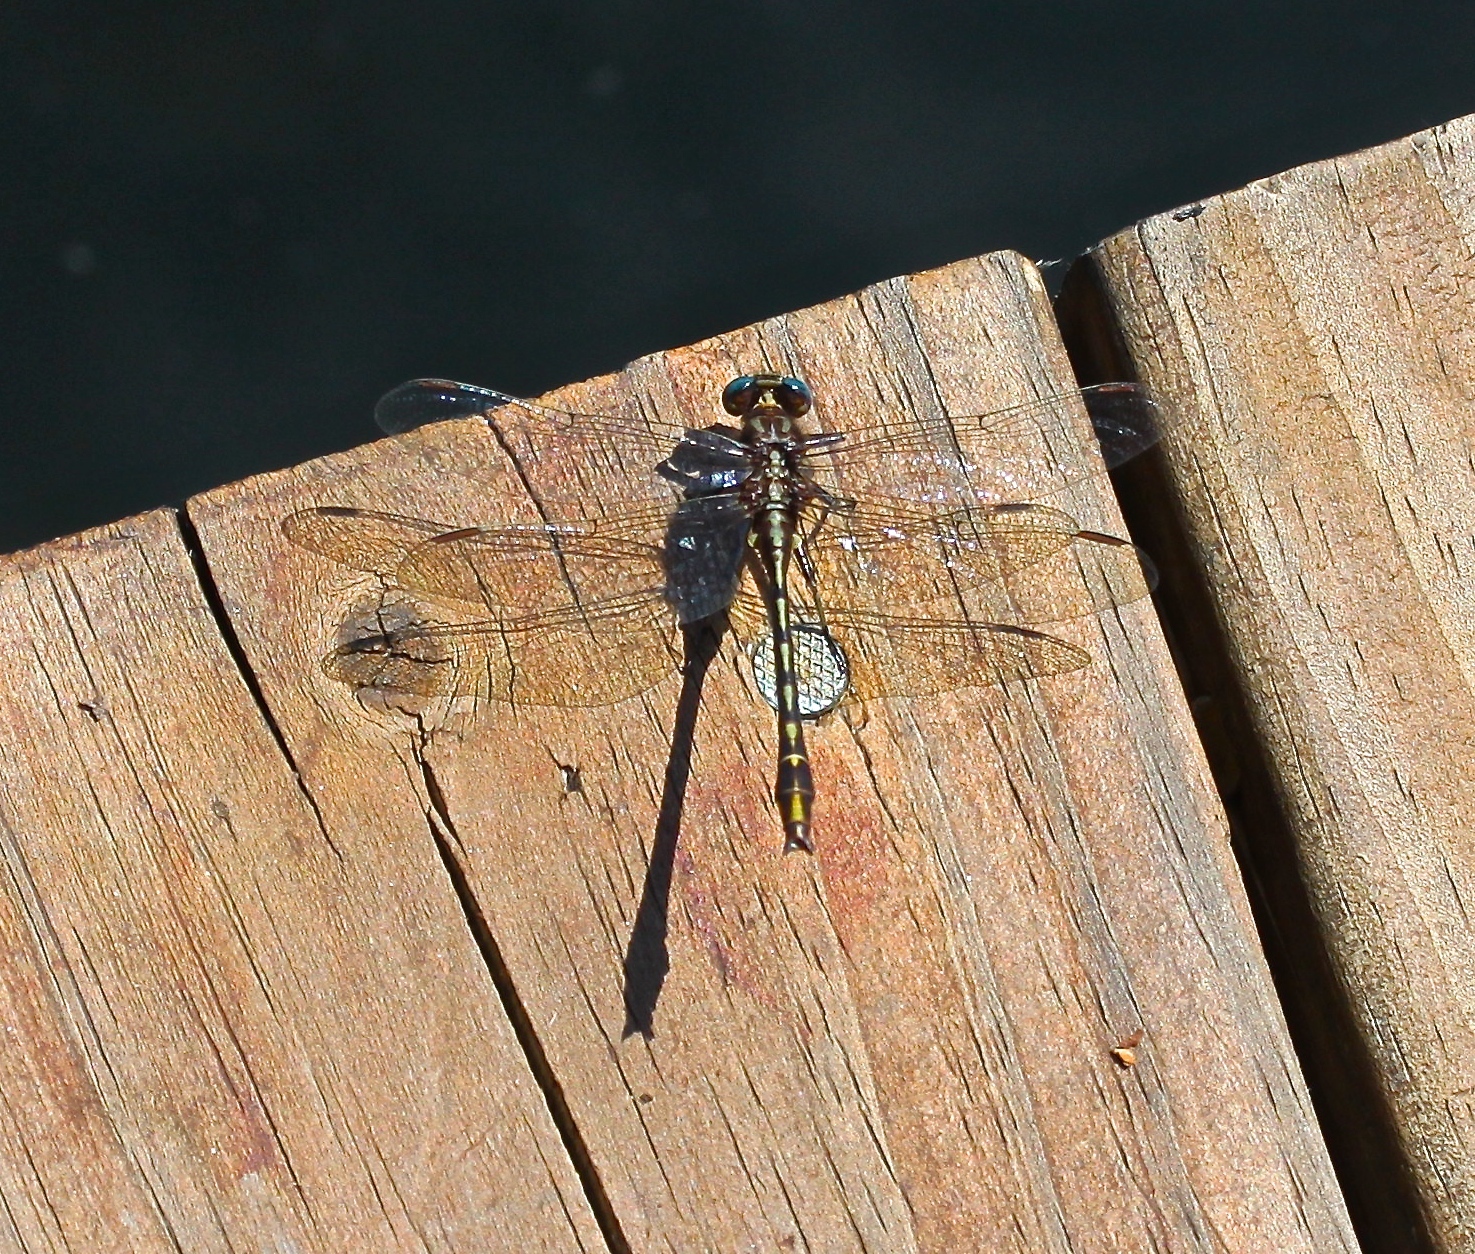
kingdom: Animalia
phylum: Arthropoda
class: Insecta
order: Odonata
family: Gomphidae
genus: Phanogomphus
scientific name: Phanogomphus exilis
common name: Lancet clubtail
